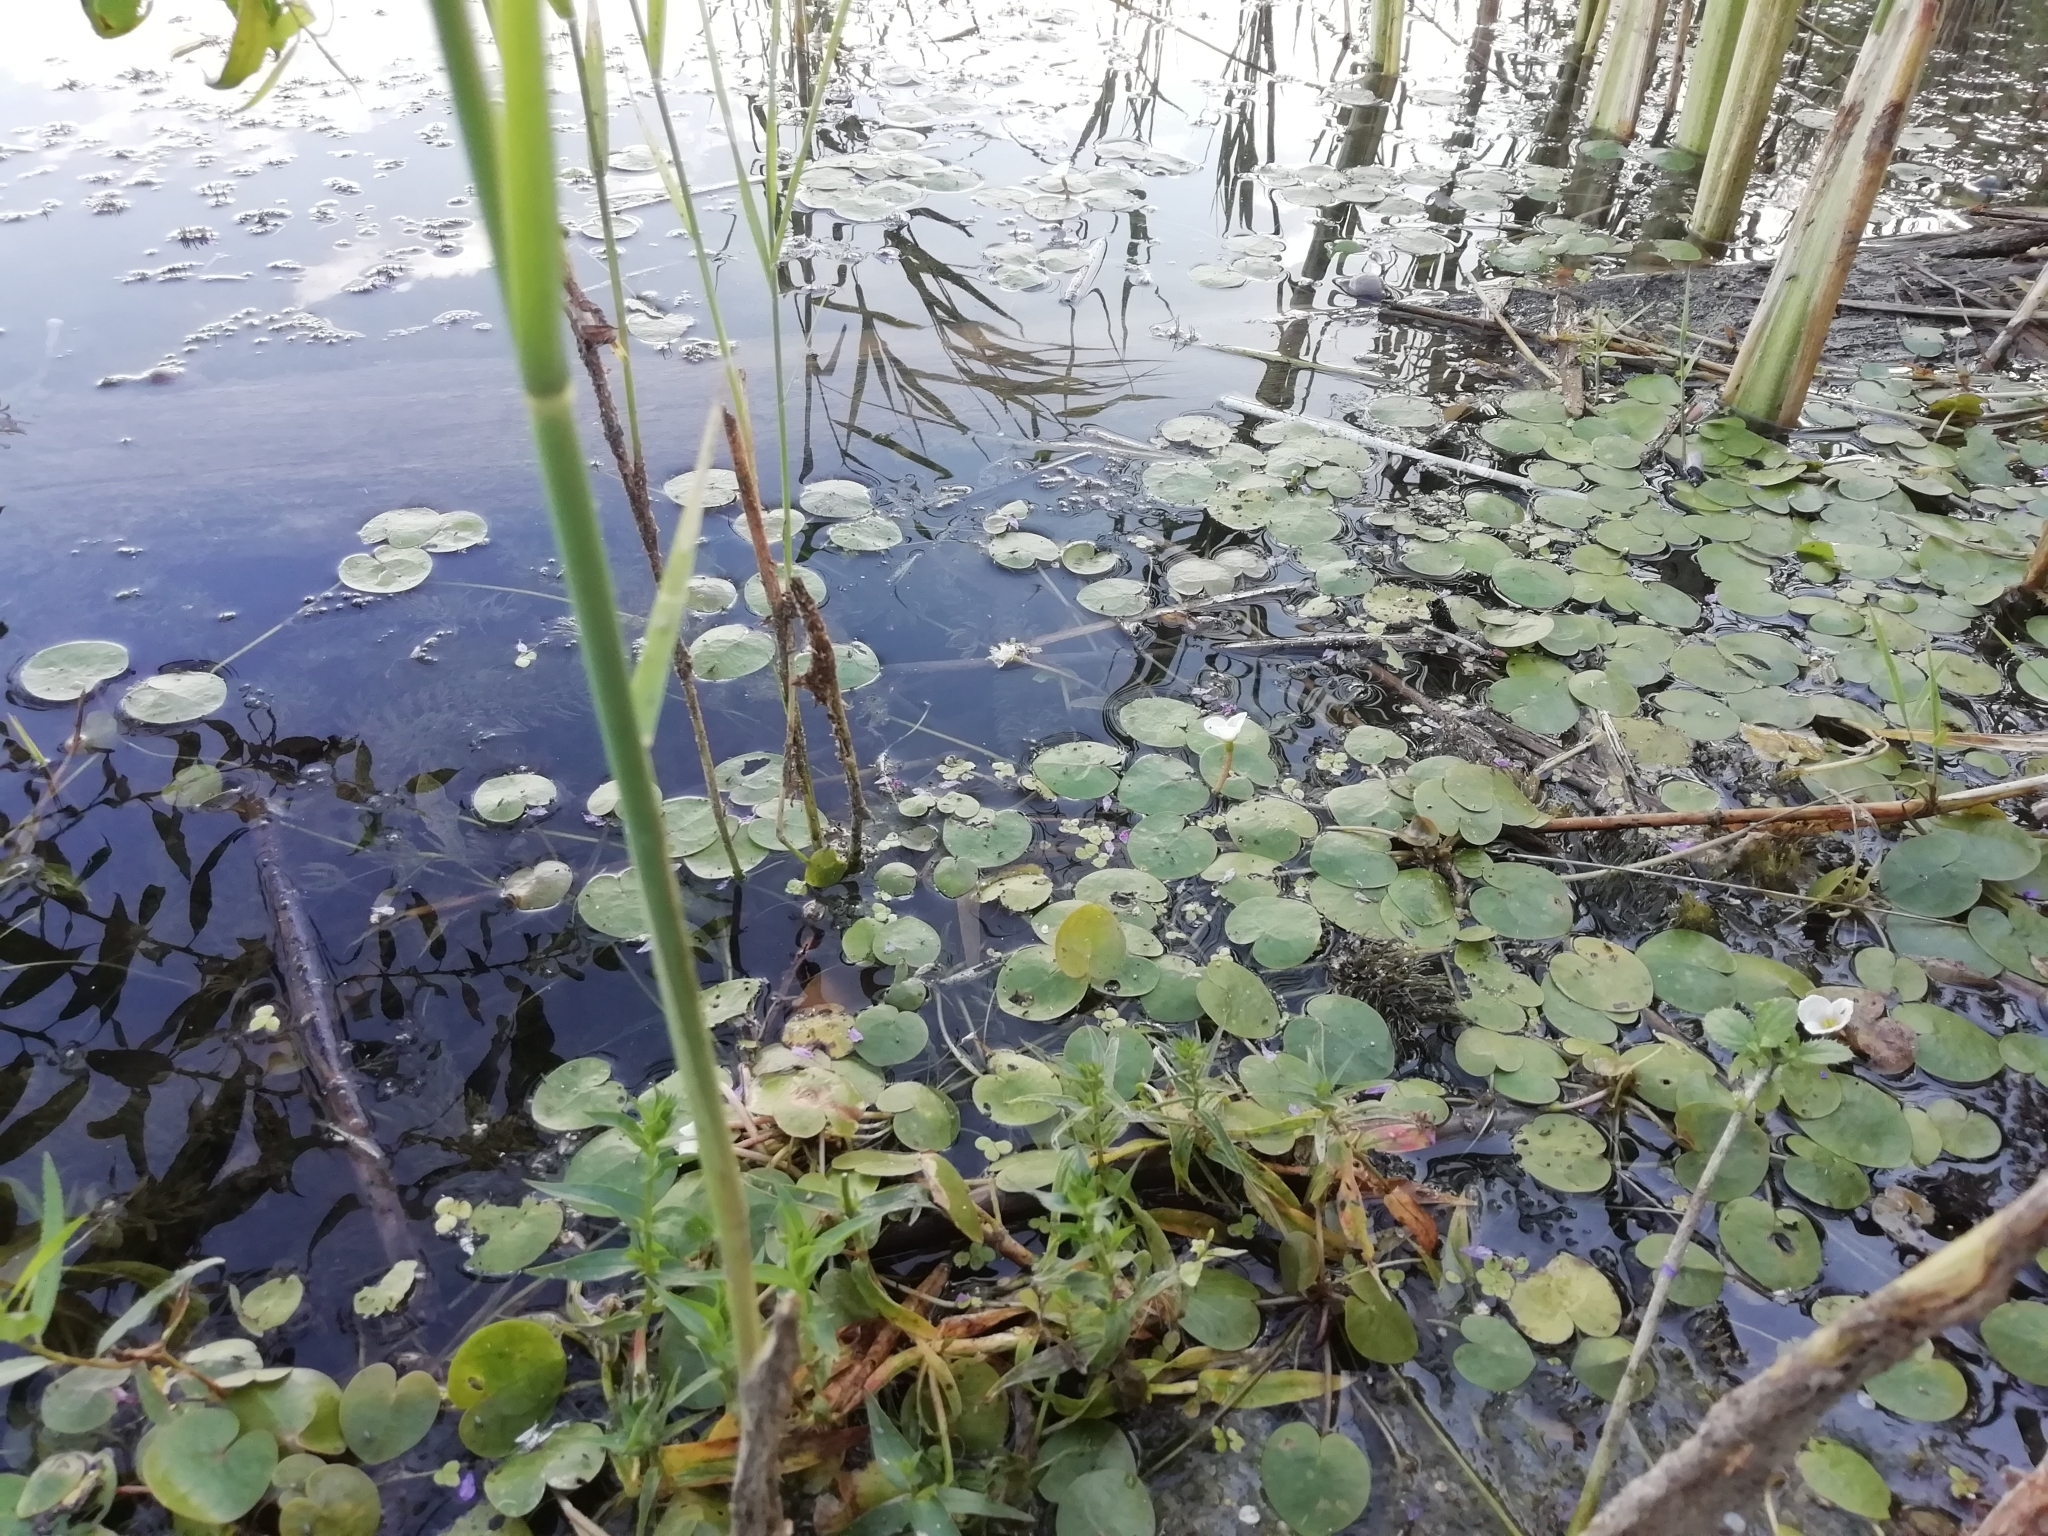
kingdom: Plantae
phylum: Tracheophyta
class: Liliopsida
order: Alismatales
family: Hydrocharitaceae
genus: Hydrocharis
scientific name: Hydrocharis morsus-ranae
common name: Frogbit
